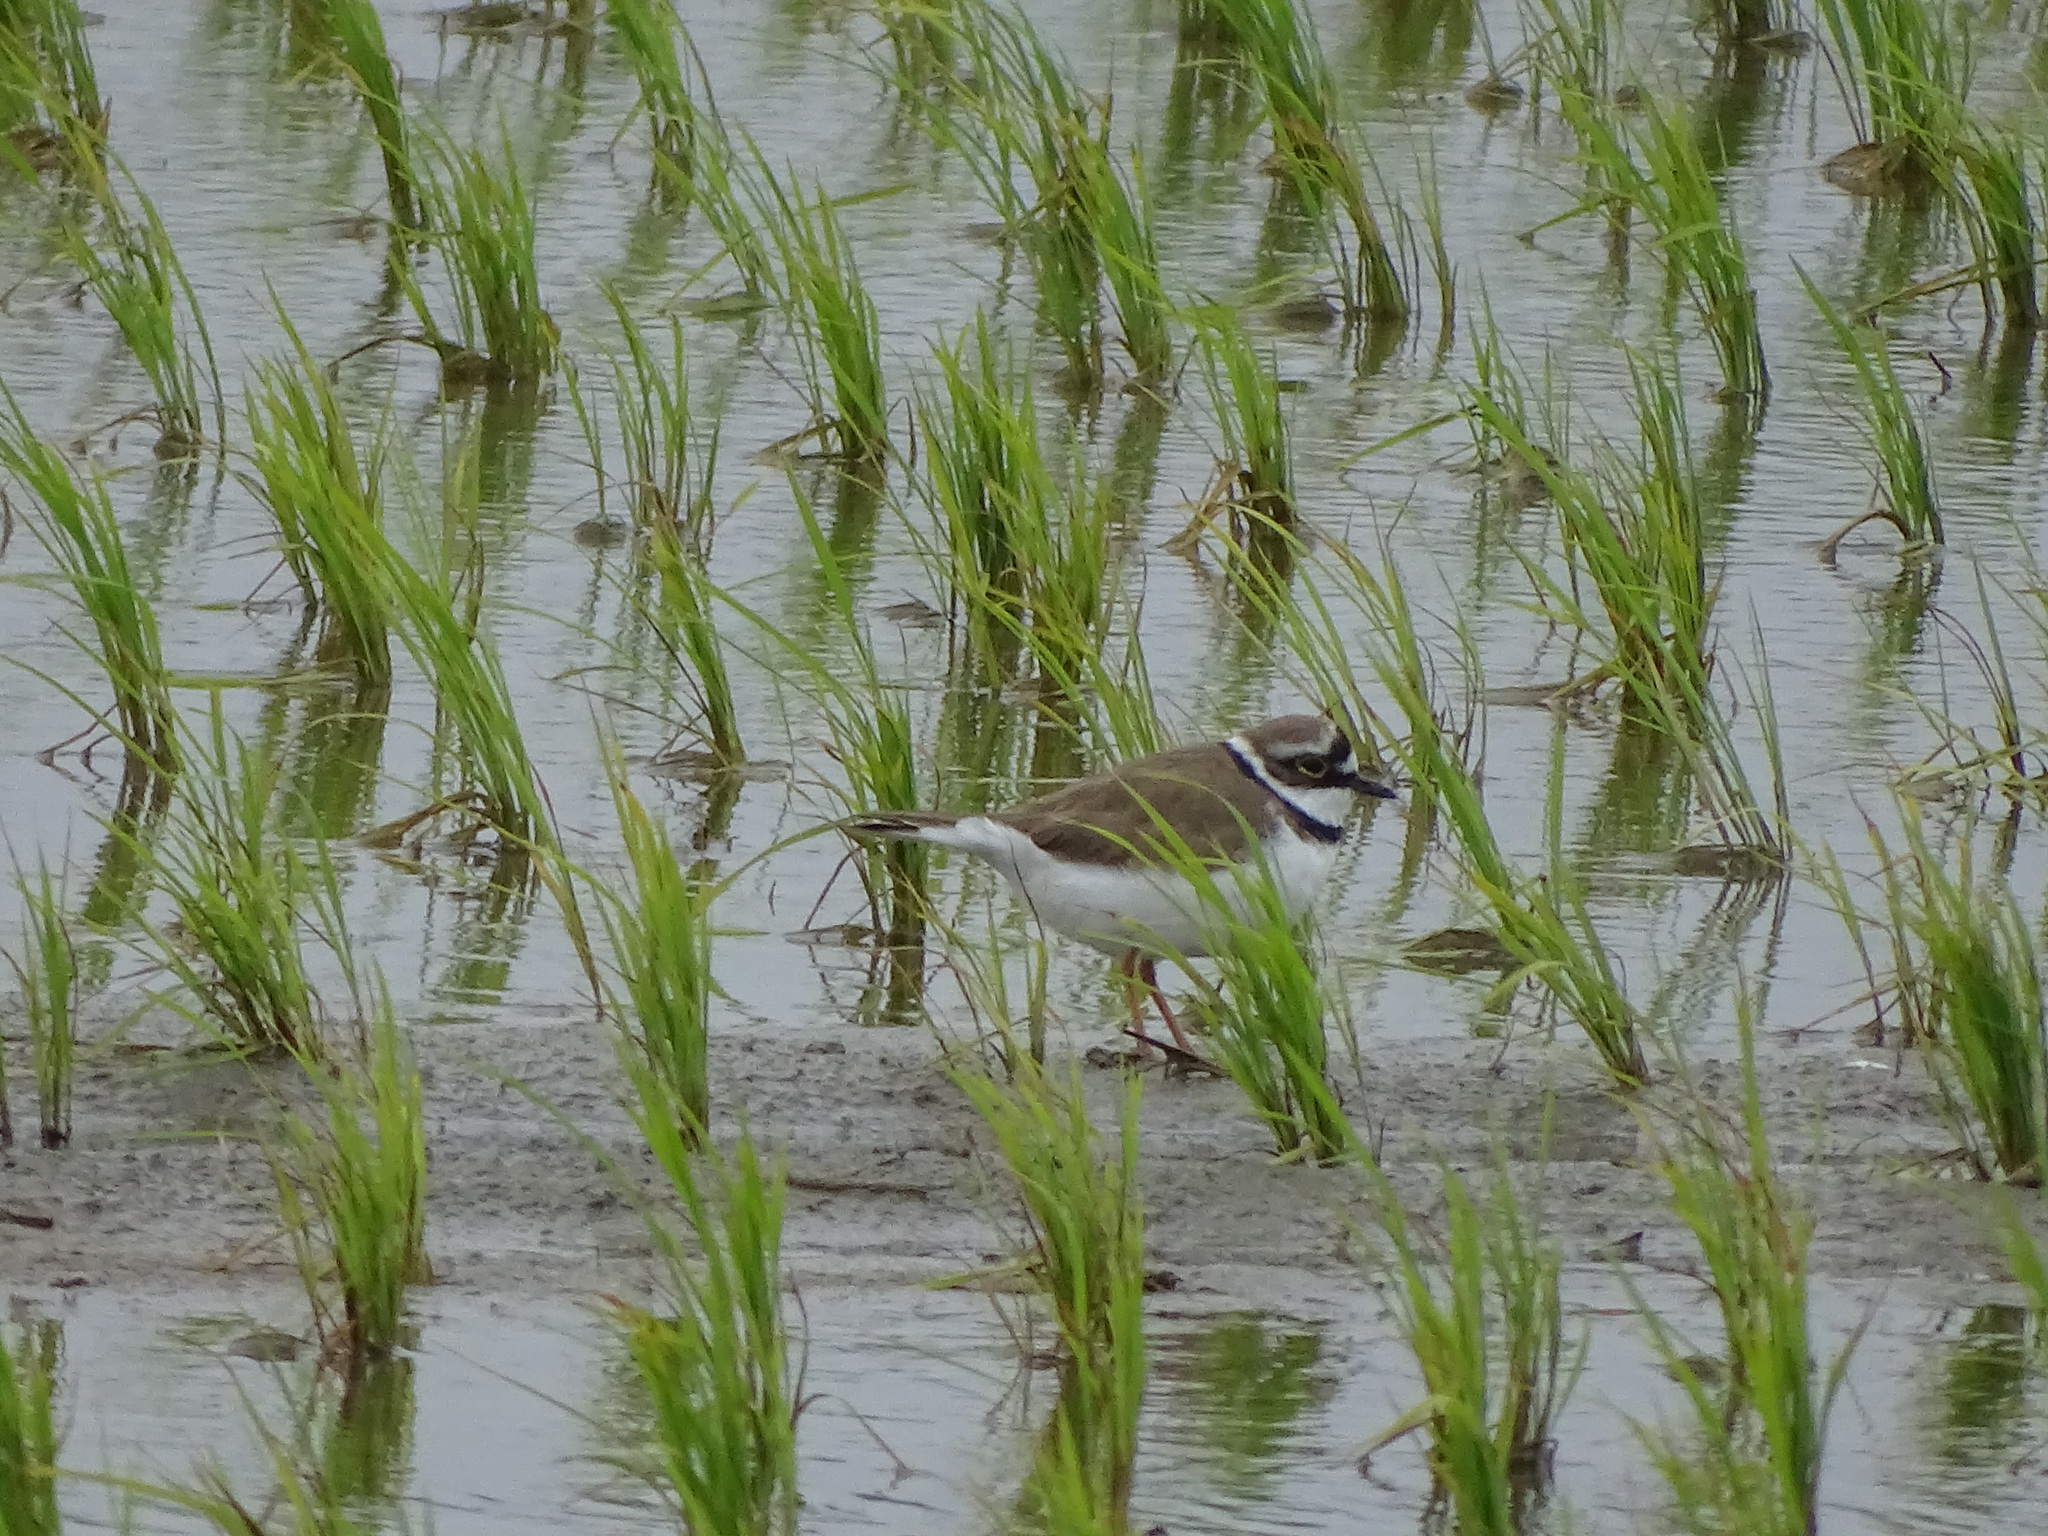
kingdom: Animalia
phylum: Chordata
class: Aves
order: Charadriiformes
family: Charadriidae
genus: Charadrius
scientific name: Charadrius dubius
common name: Little ringed plover
